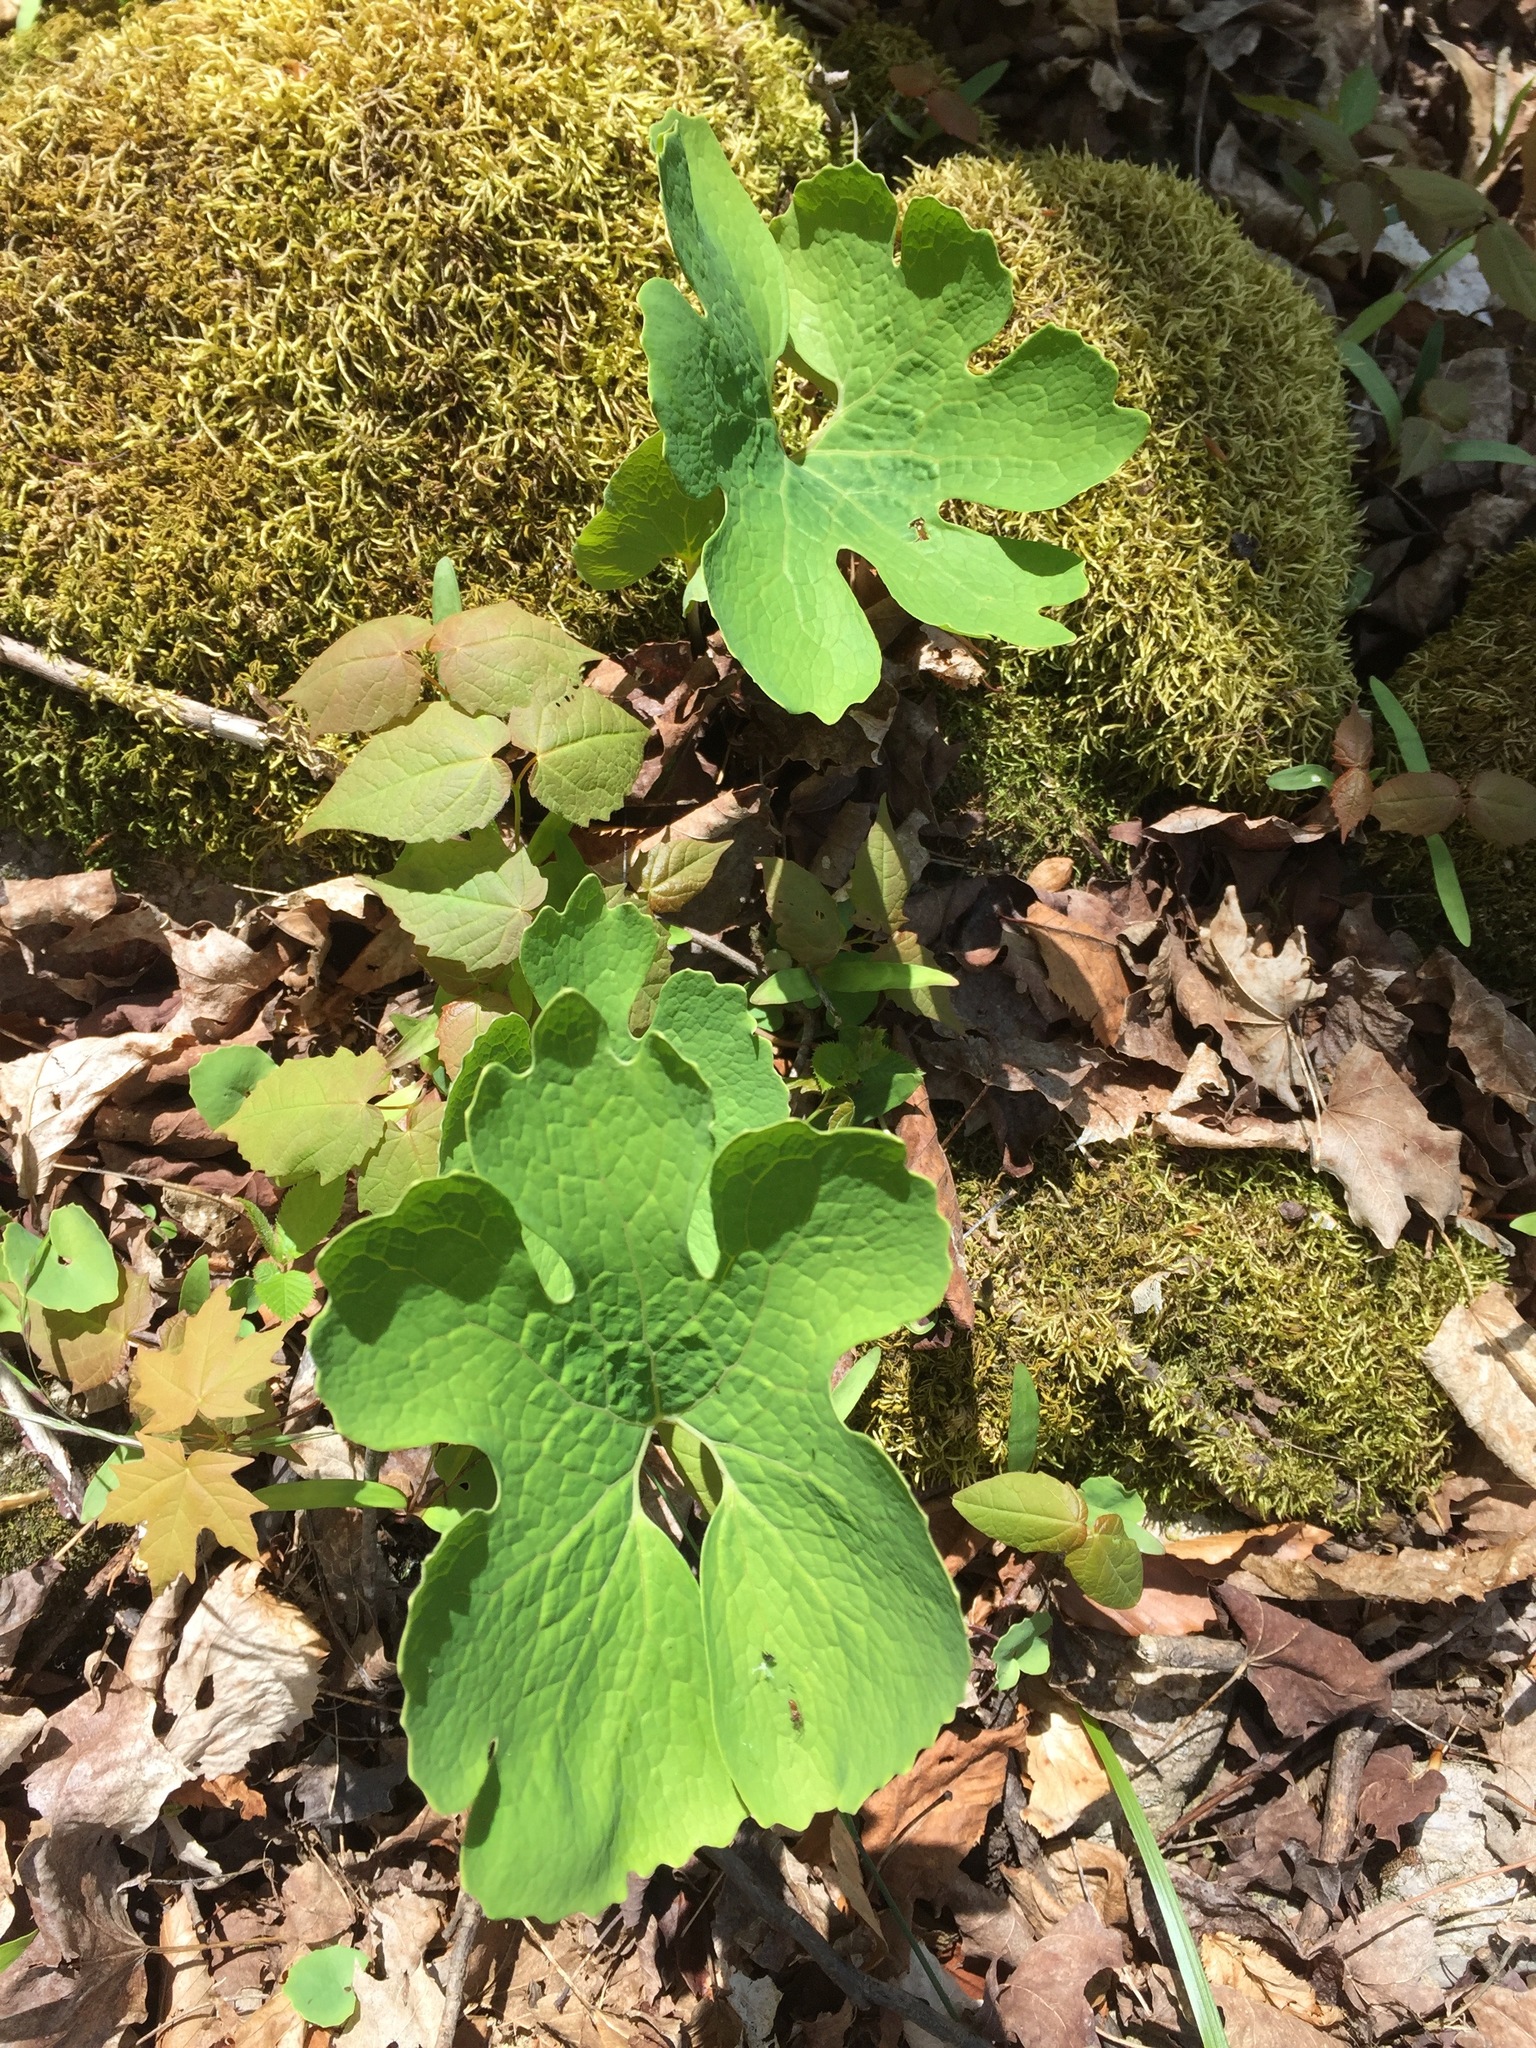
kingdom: Plantae
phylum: Tracheophyta
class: Magnoliopsida
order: Ranunculales
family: Papaveraceae
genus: Sanguinaria
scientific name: Sanguinaria canadensis
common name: Bloodroot
